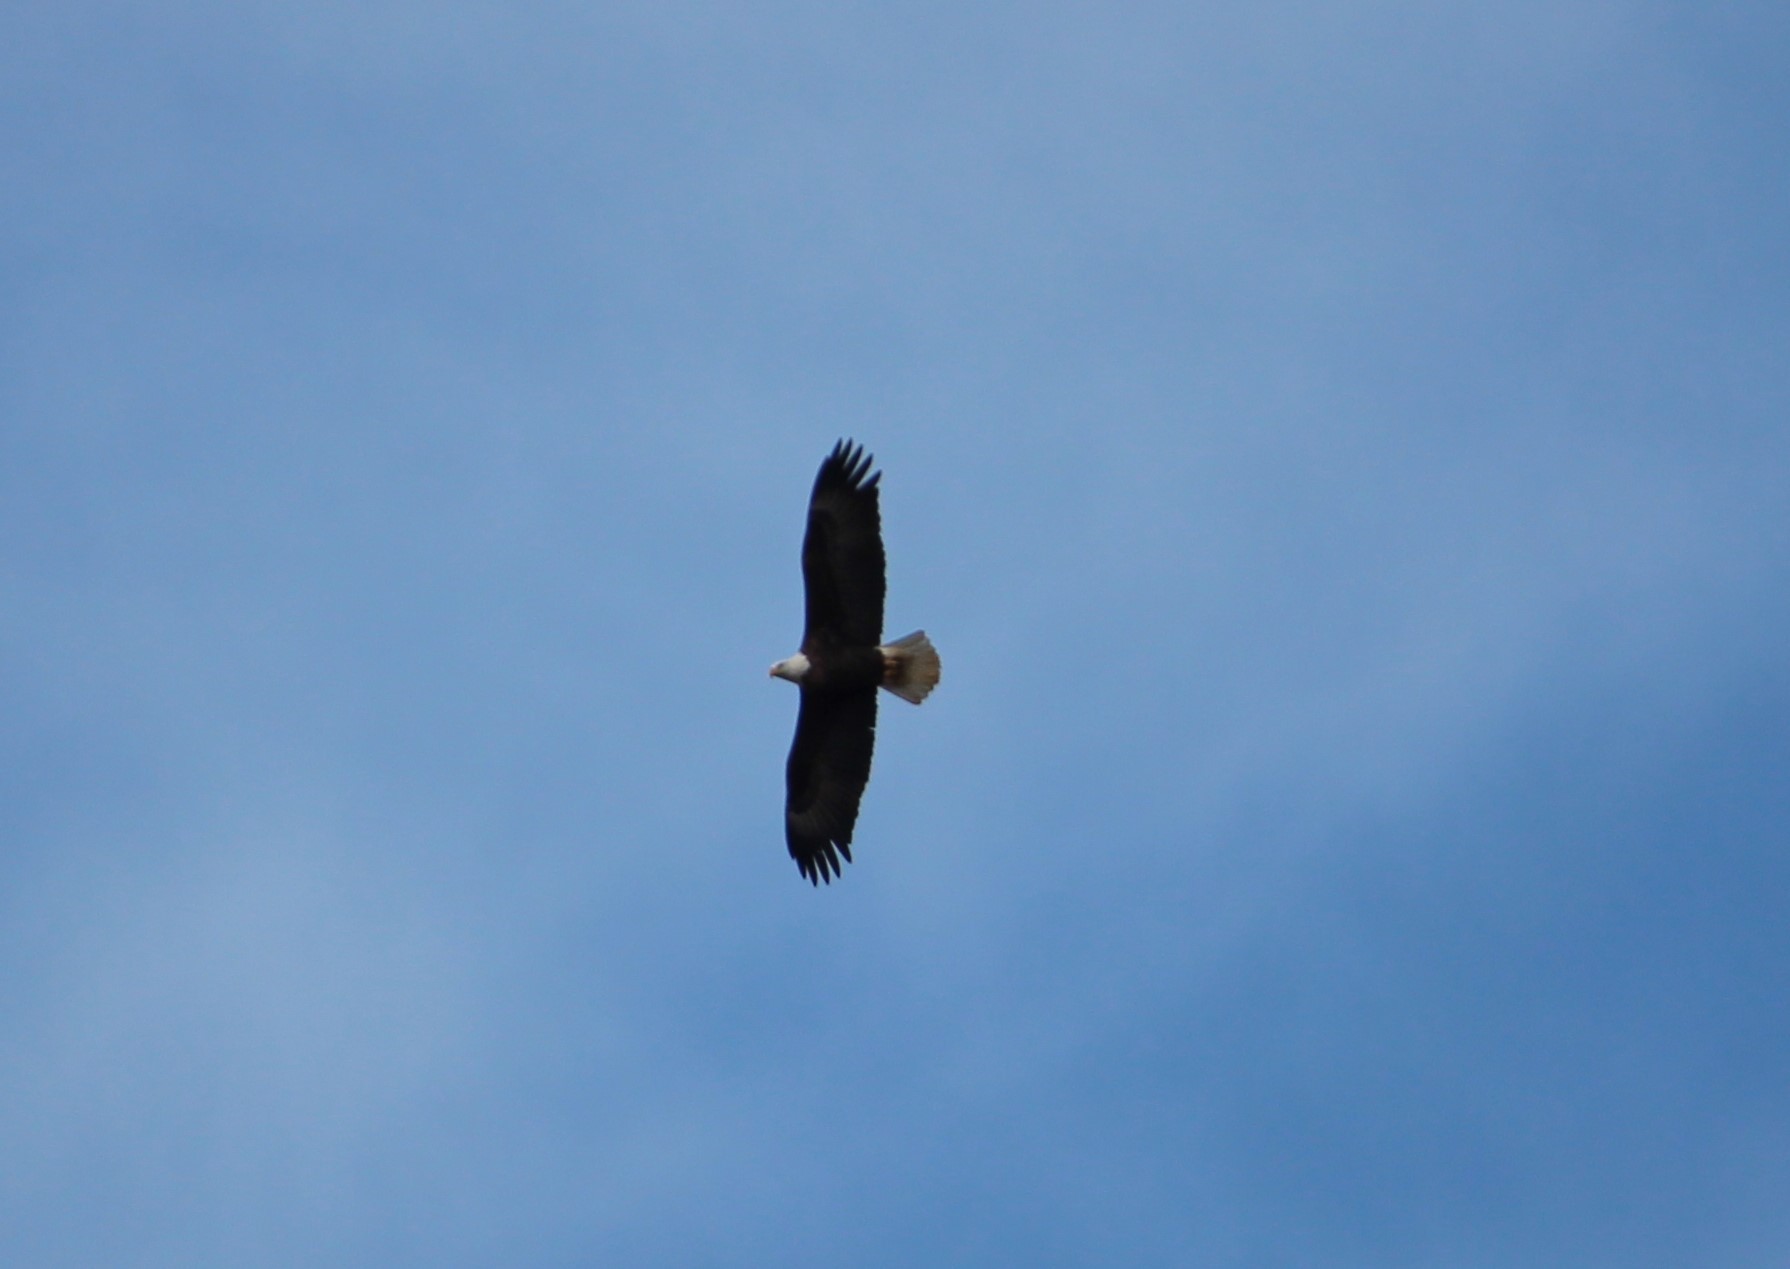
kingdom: Animalia
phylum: Chordata
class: Aves
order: Accipitriformes
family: Accipitridae
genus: Haliaeetus
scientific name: Haliaeetus leucocephalus
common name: Bald eagle
